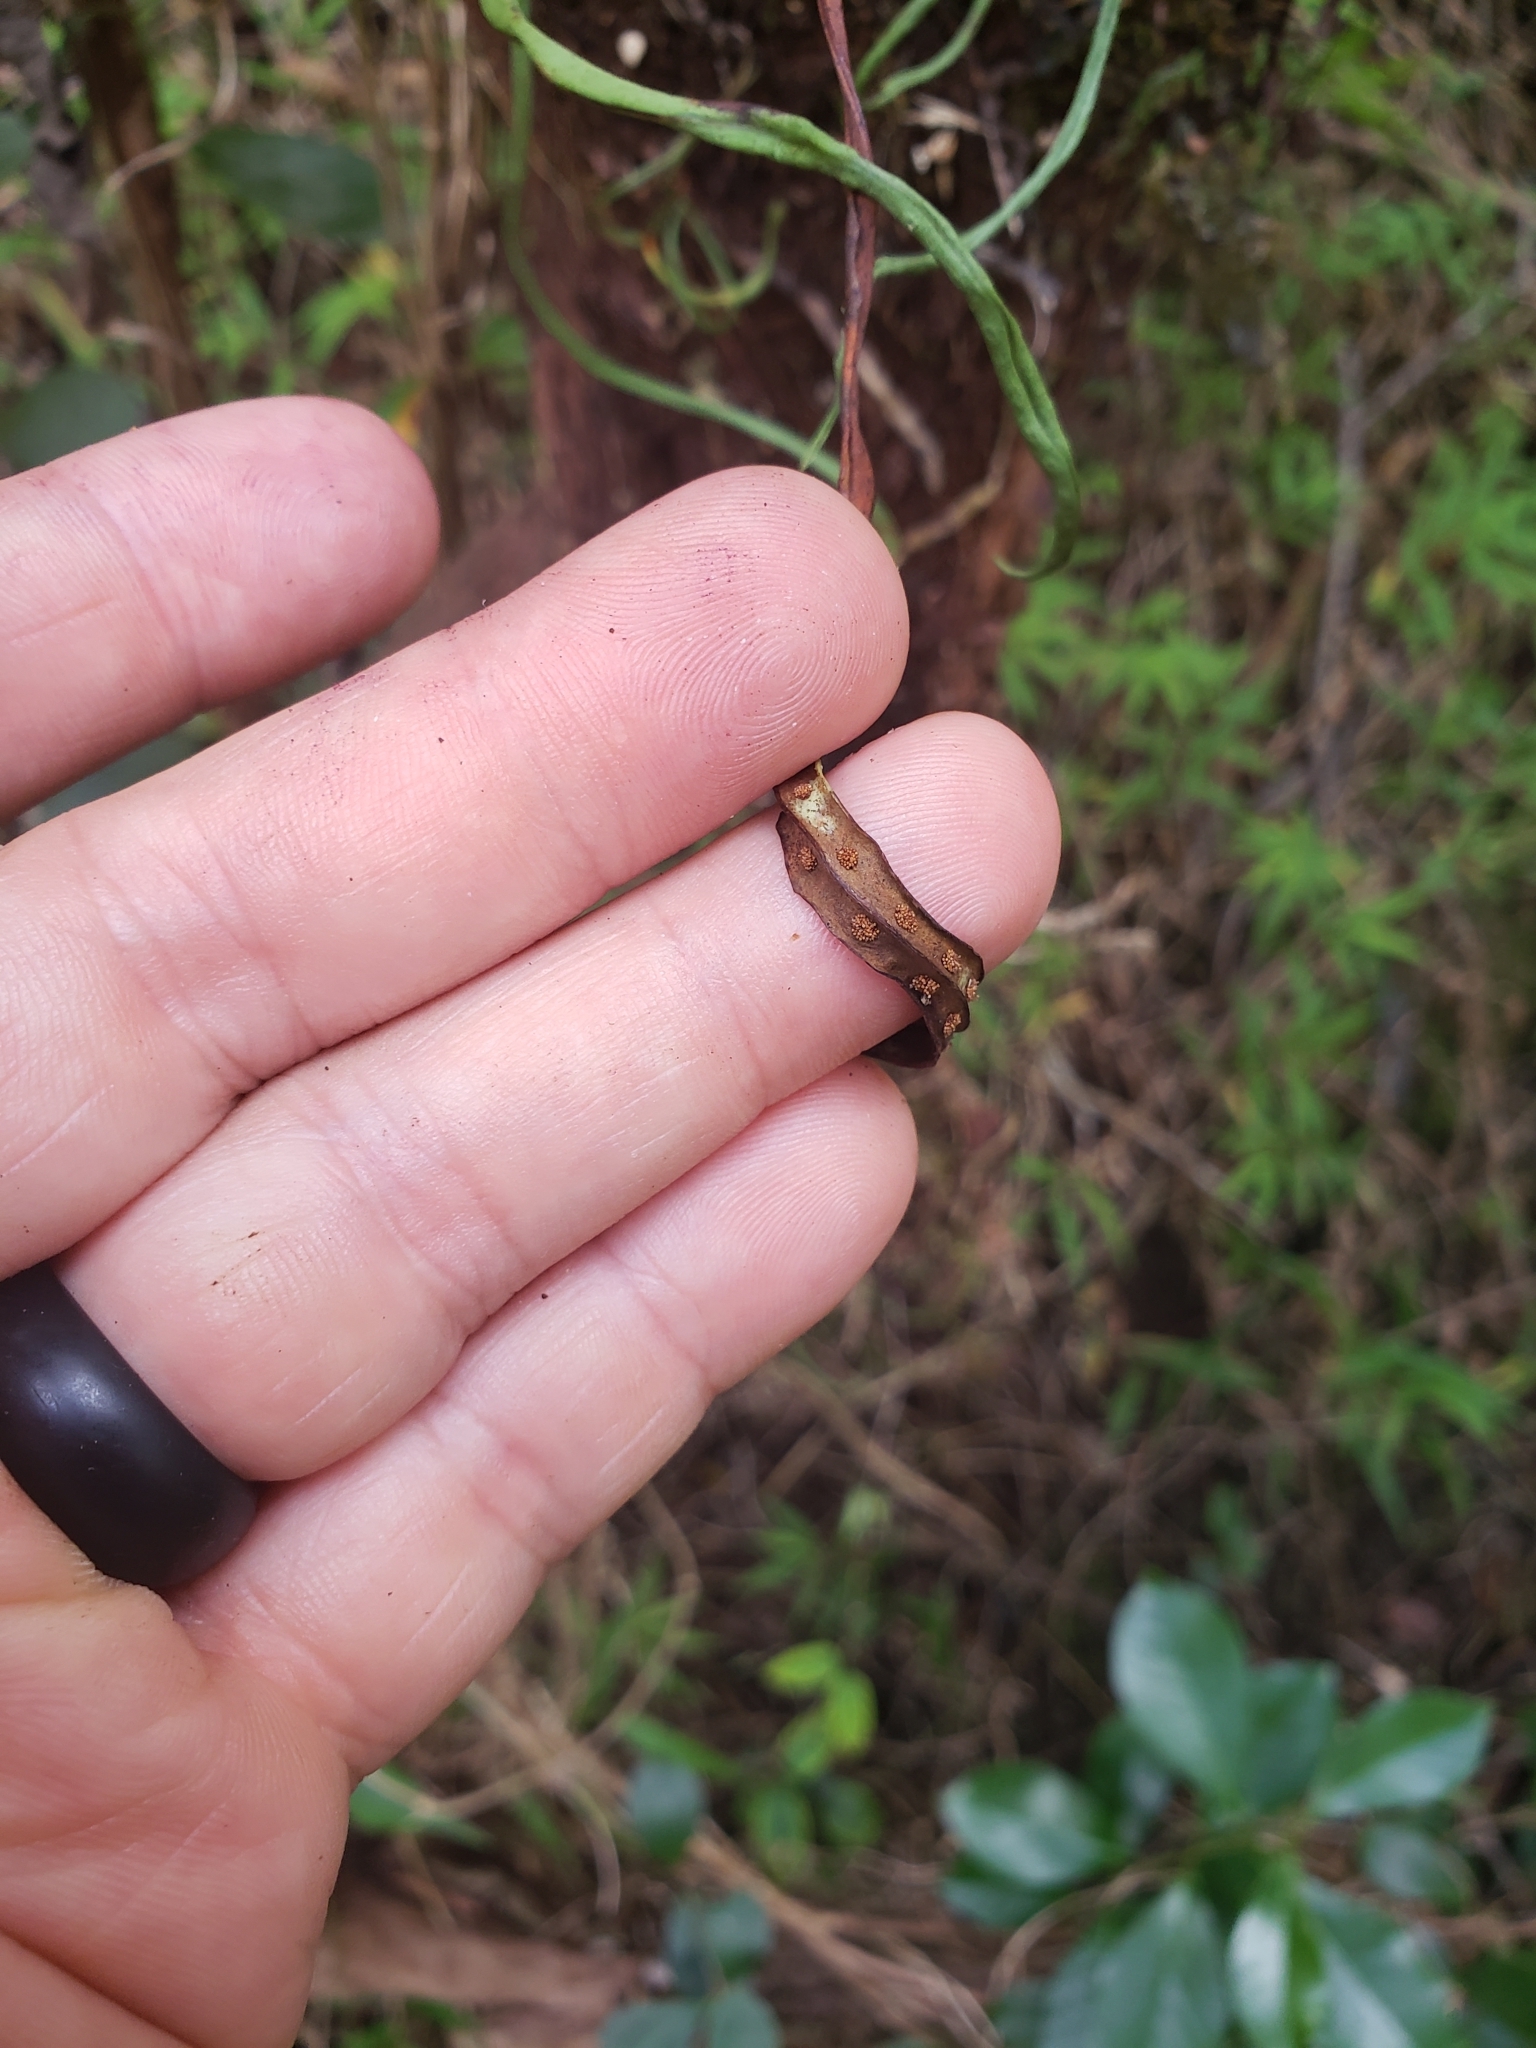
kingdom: Plantae
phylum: Tracheophyta
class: Polypodiopsida
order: Polypodiales
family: Polypodiaceae
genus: Lepisorus
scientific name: Lepisorus thunbergianus
